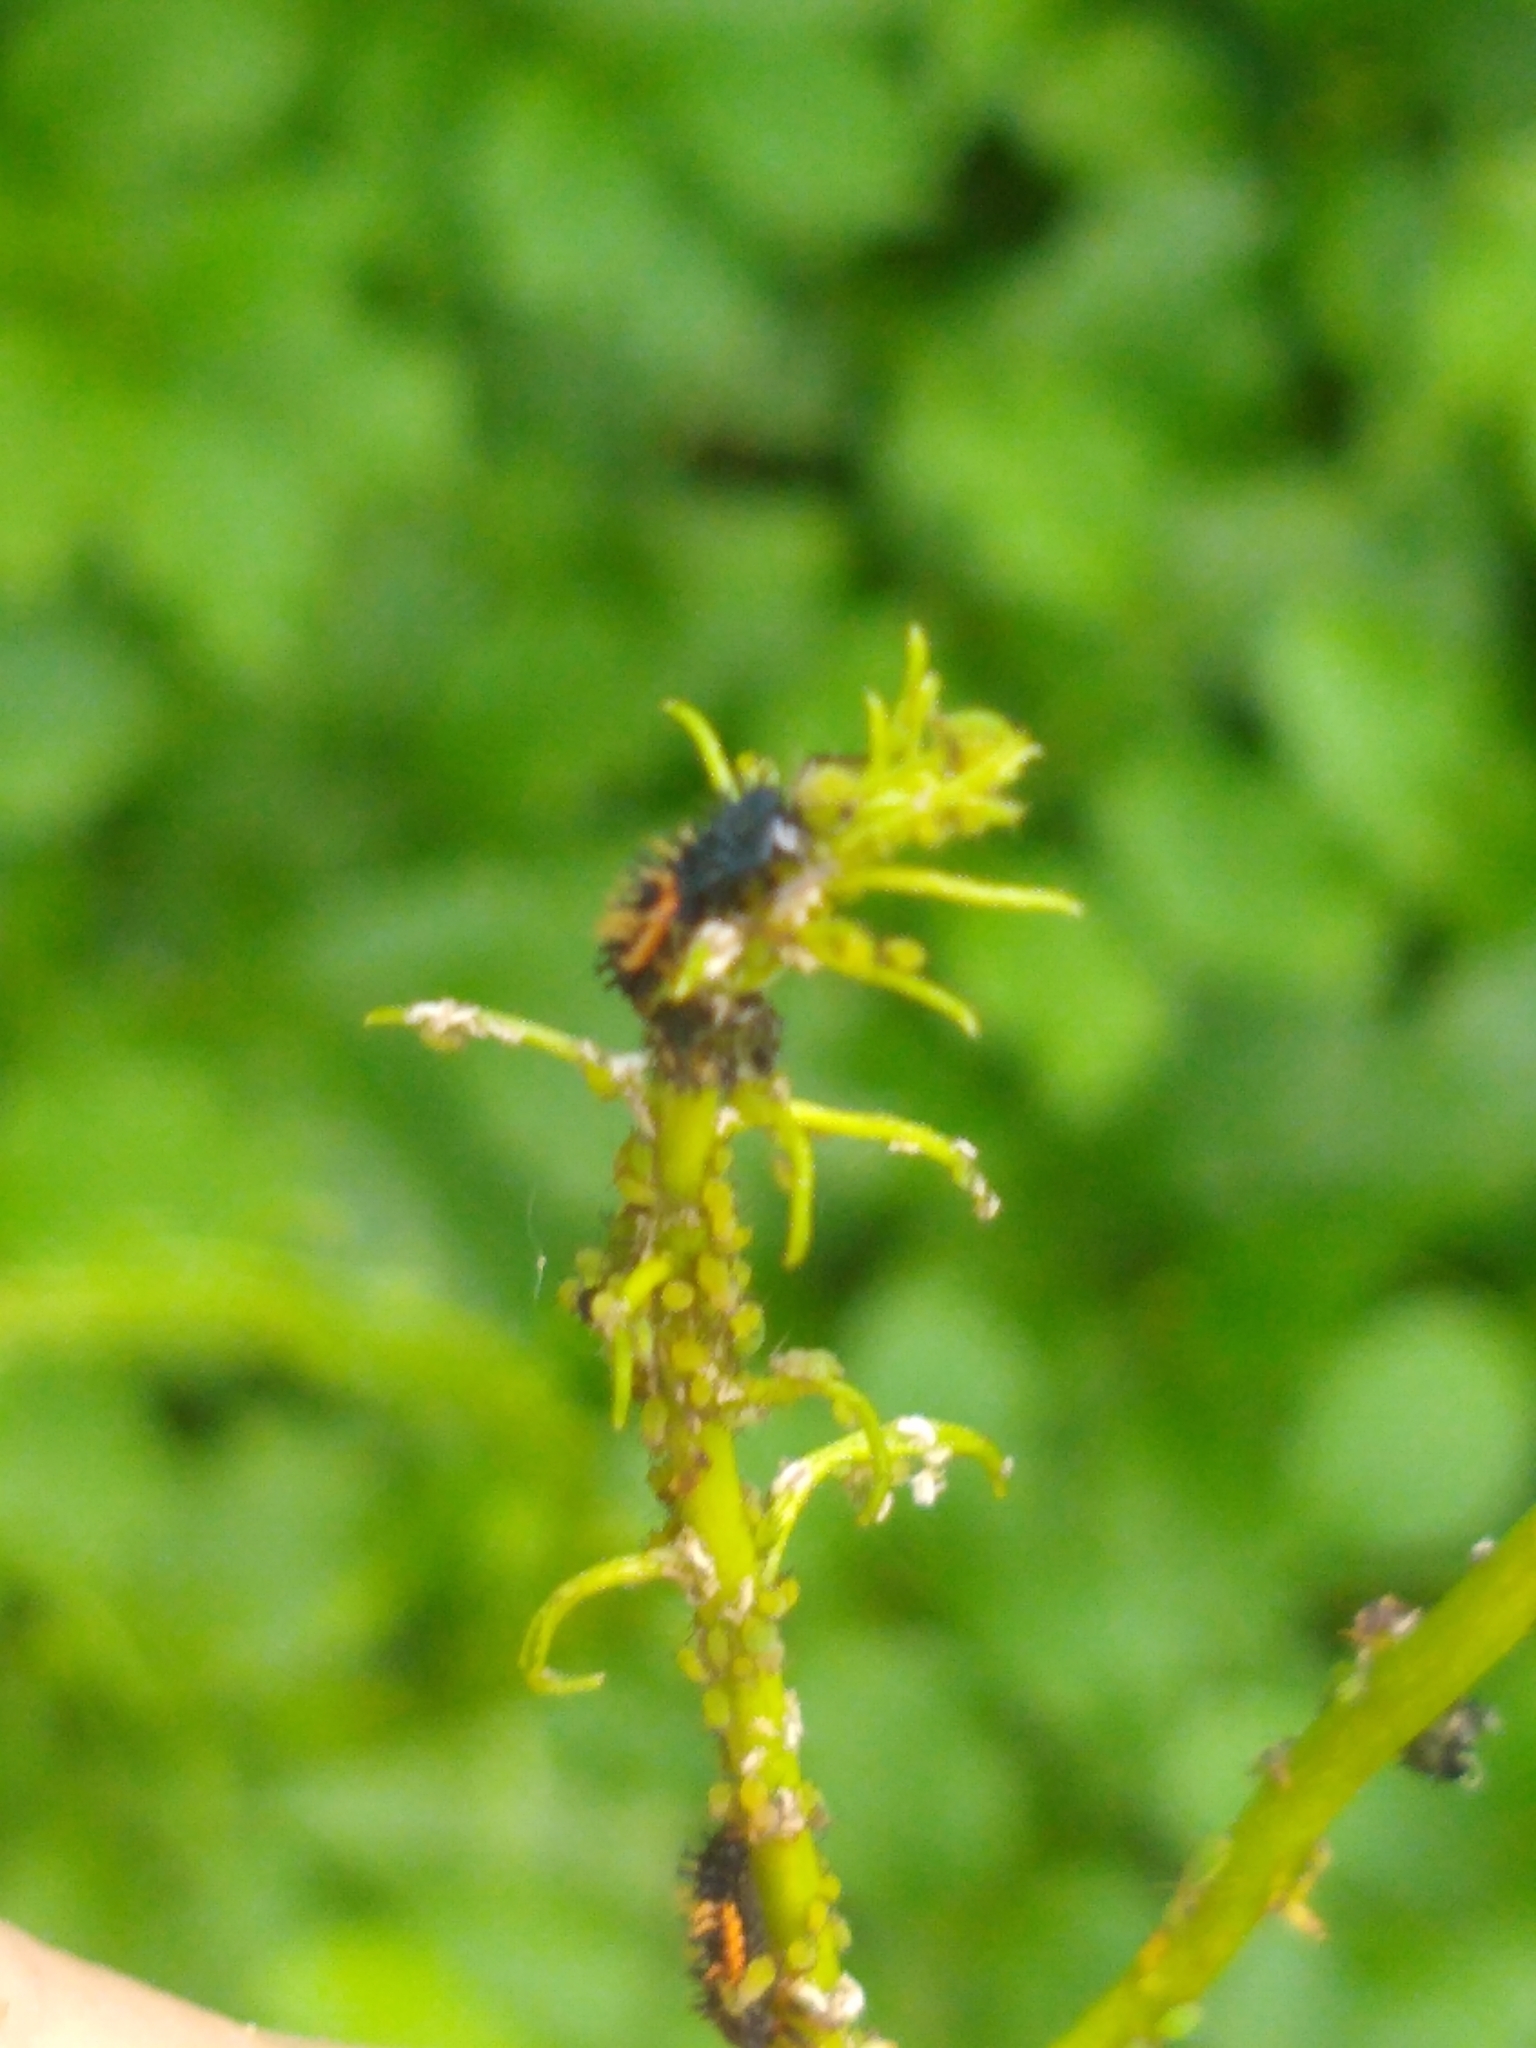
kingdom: Animalia
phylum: Arthropoda
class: Insecta
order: Coleoptera
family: Coccinellidae
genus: Harmonia
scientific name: Harmonia axyridis
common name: Harlequin ladybird
